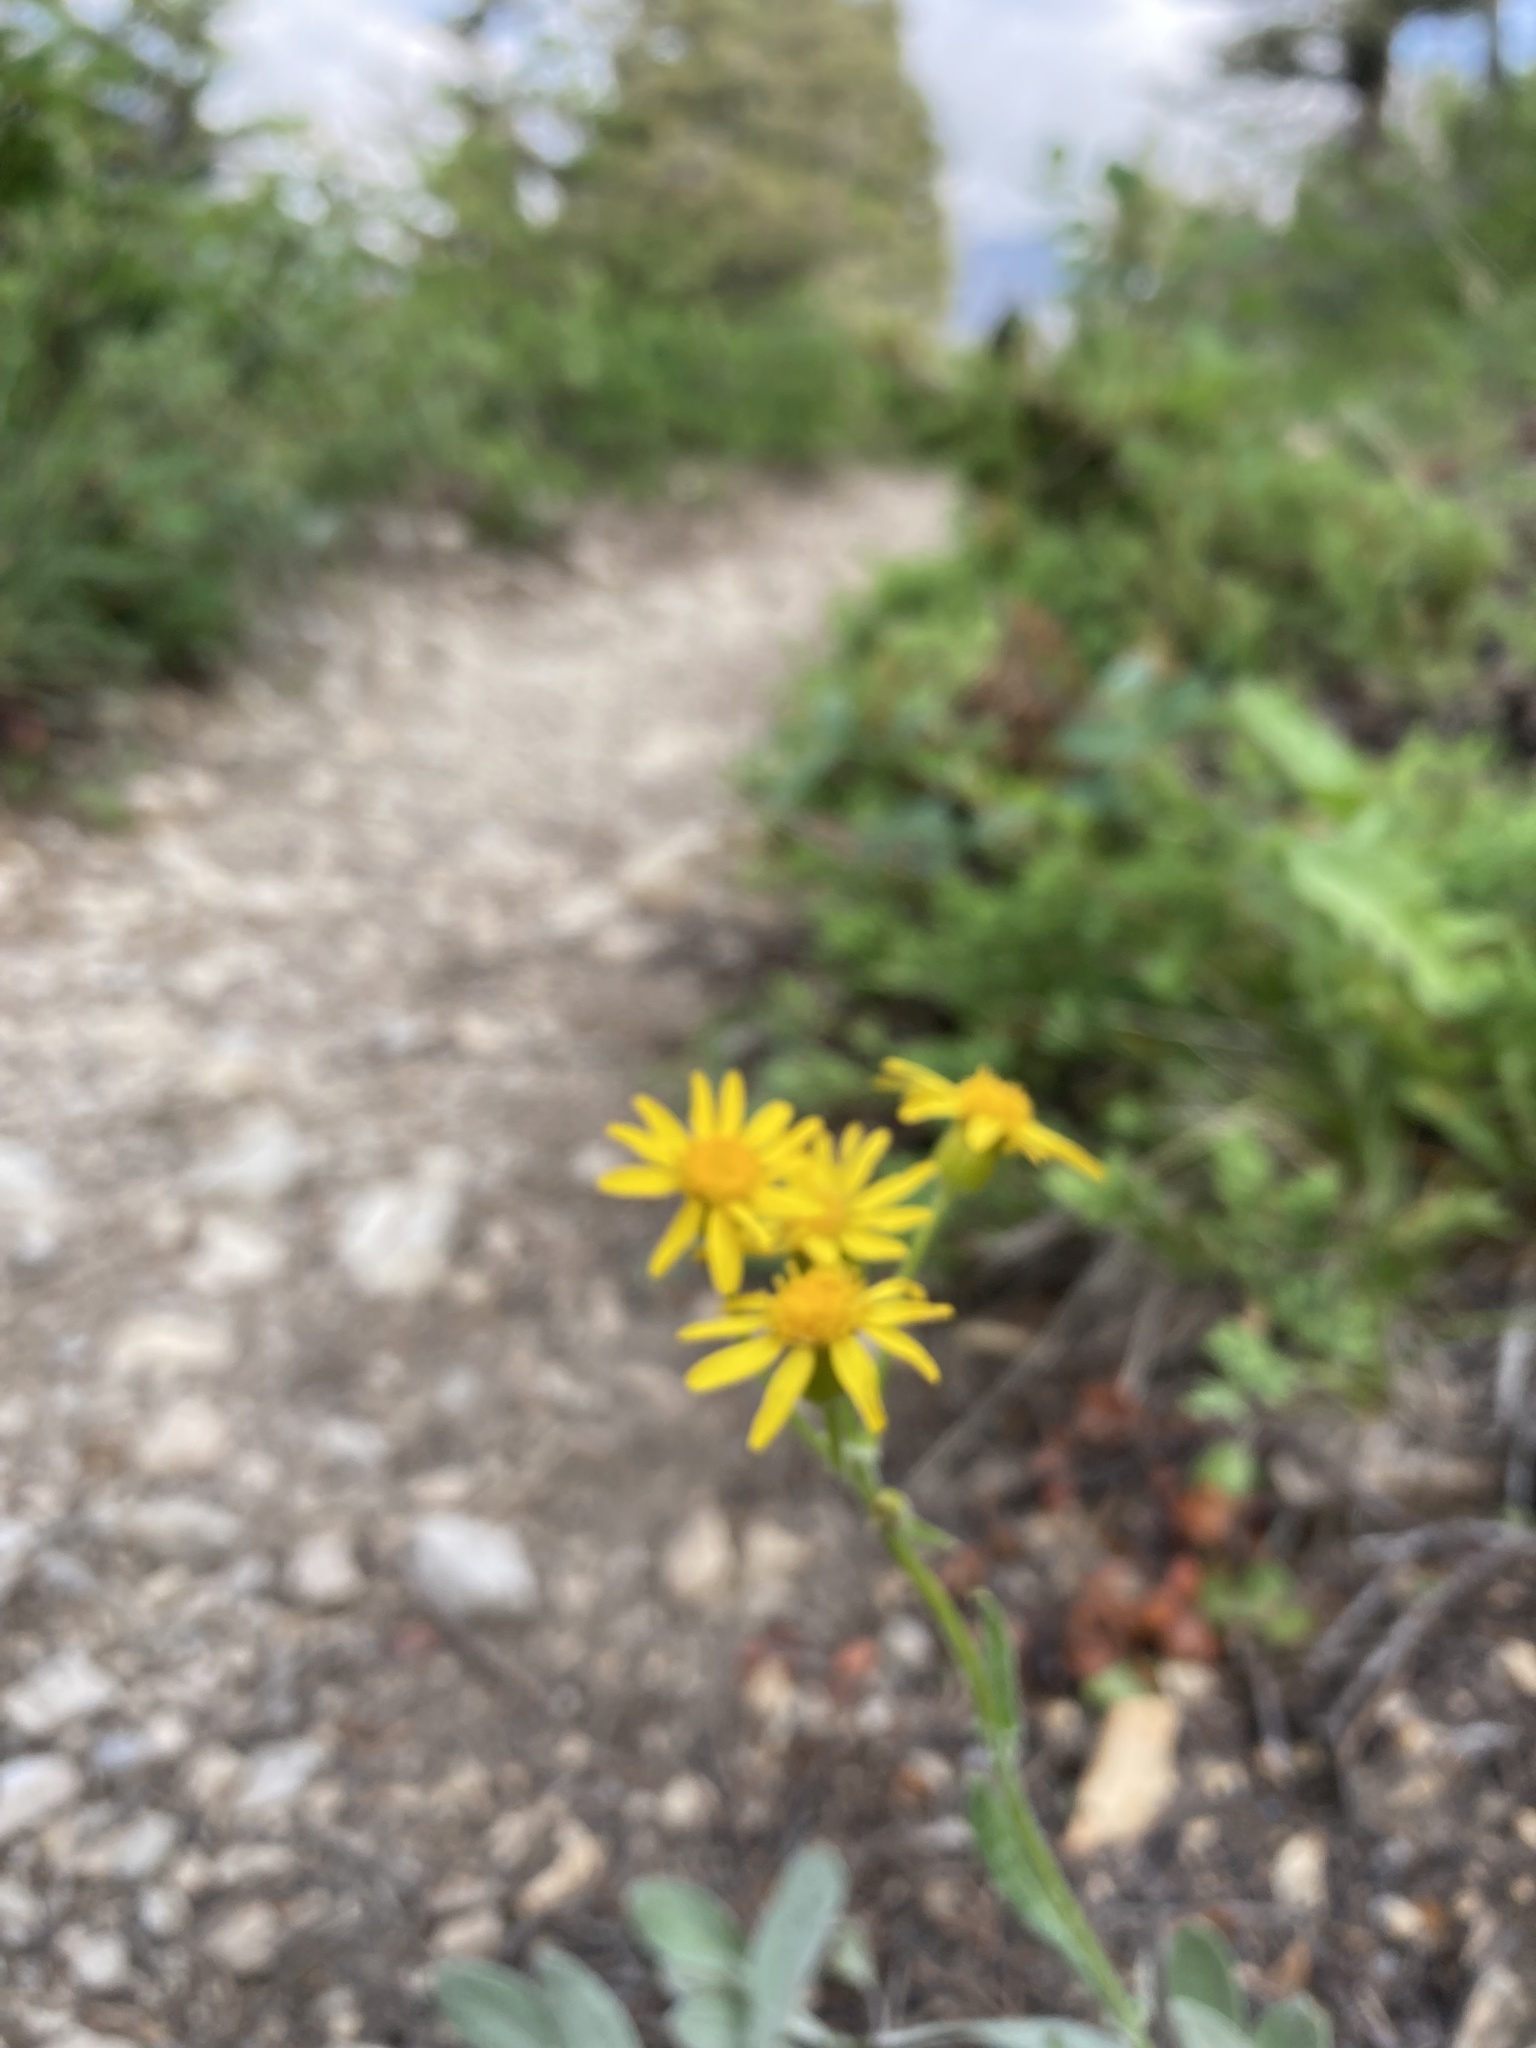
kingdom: Plantae
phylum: Tracheophyta
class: Magnoliopsida
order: Asterales
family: Asteraceae
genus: Packera
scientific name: Packera cana
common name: Woolly groundsel
